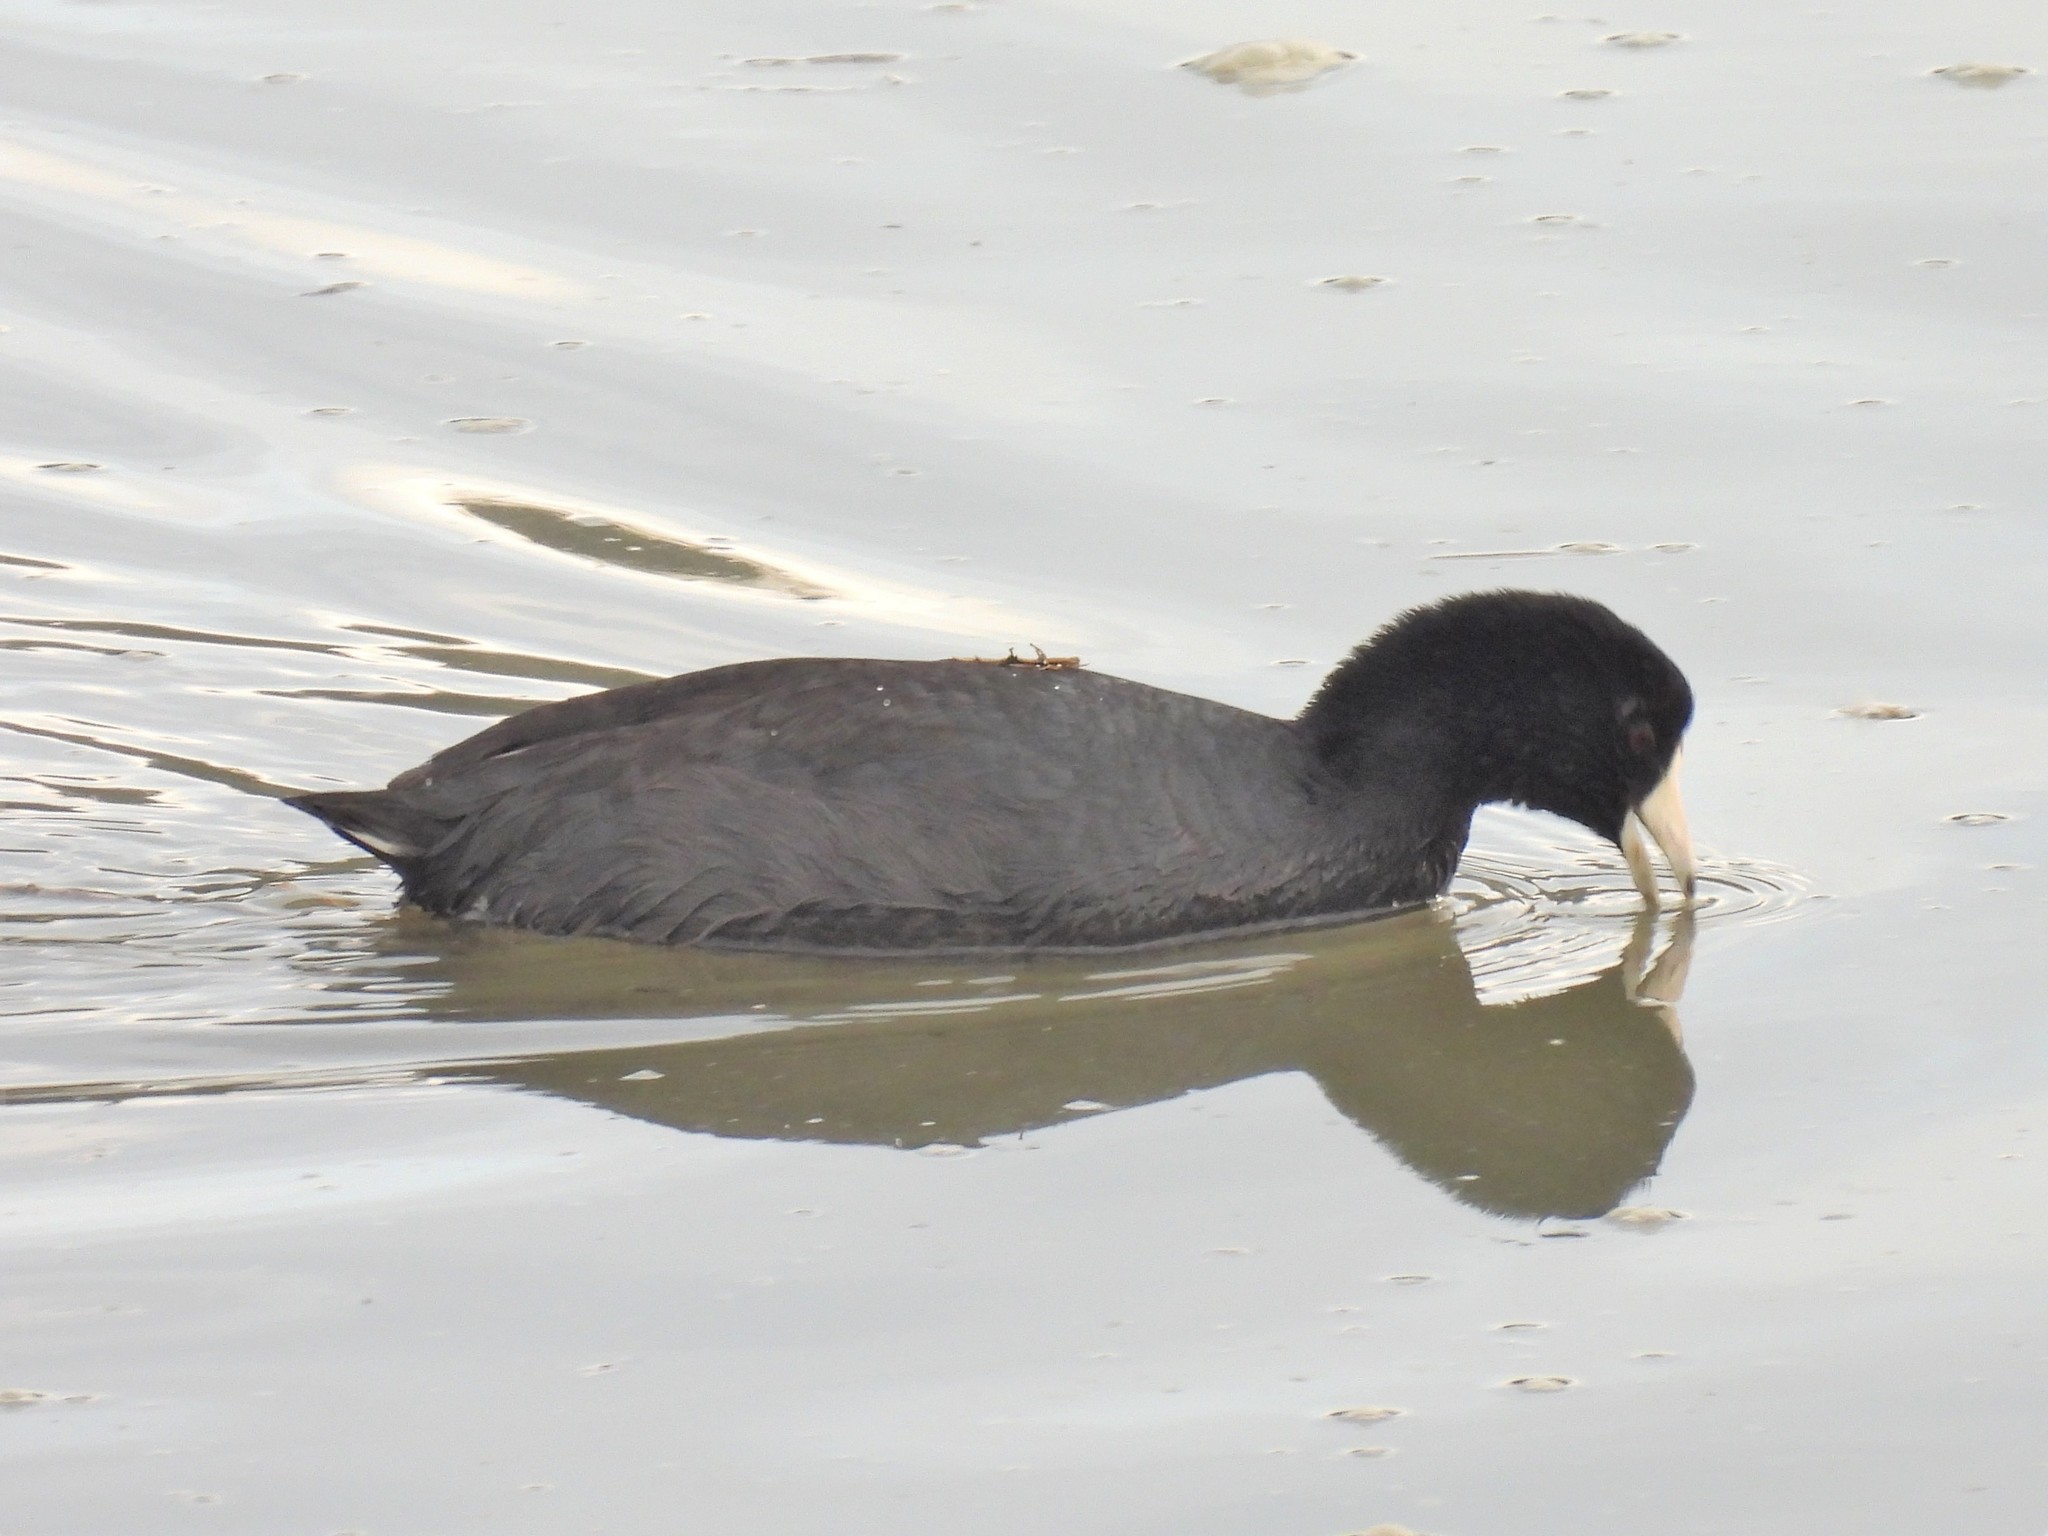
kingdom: Animalia
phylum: Chordata
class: Aves
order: Gruiformes
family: Rallidae
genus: Fulica
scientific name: Fulica americana
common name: American coot
